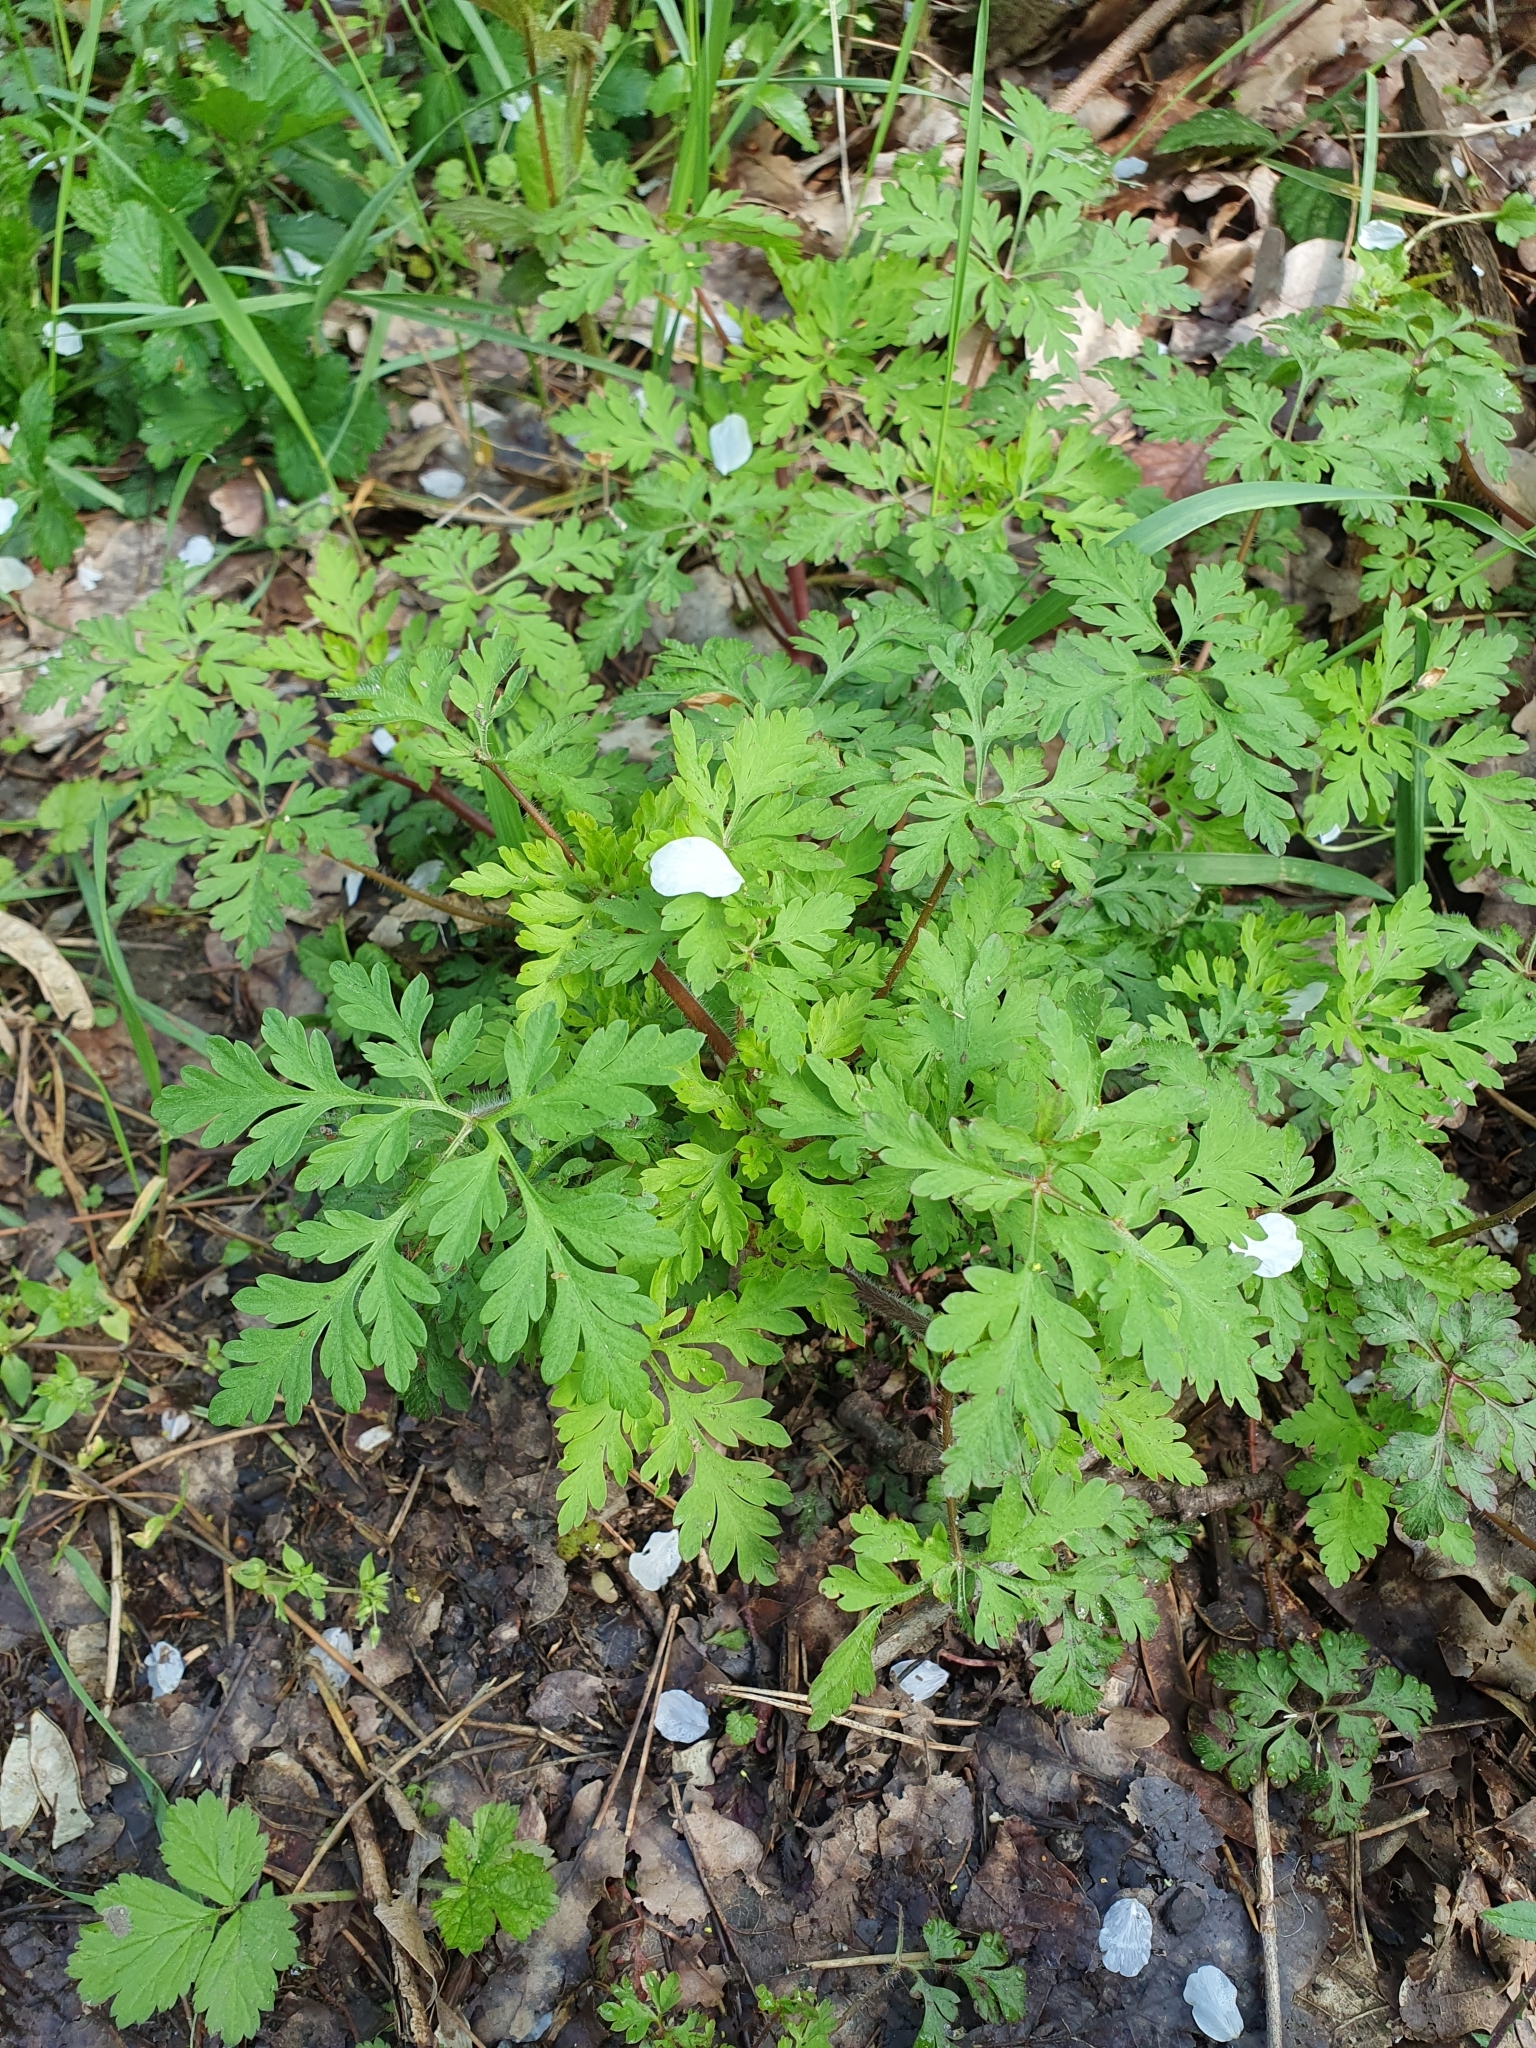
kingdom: Plantae
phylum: Tracheophyta
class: Magnoliopsida
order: Geraniales
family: Geraniaceae
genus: Geranium
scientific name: Geranium robertianum
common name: Herb-robert
